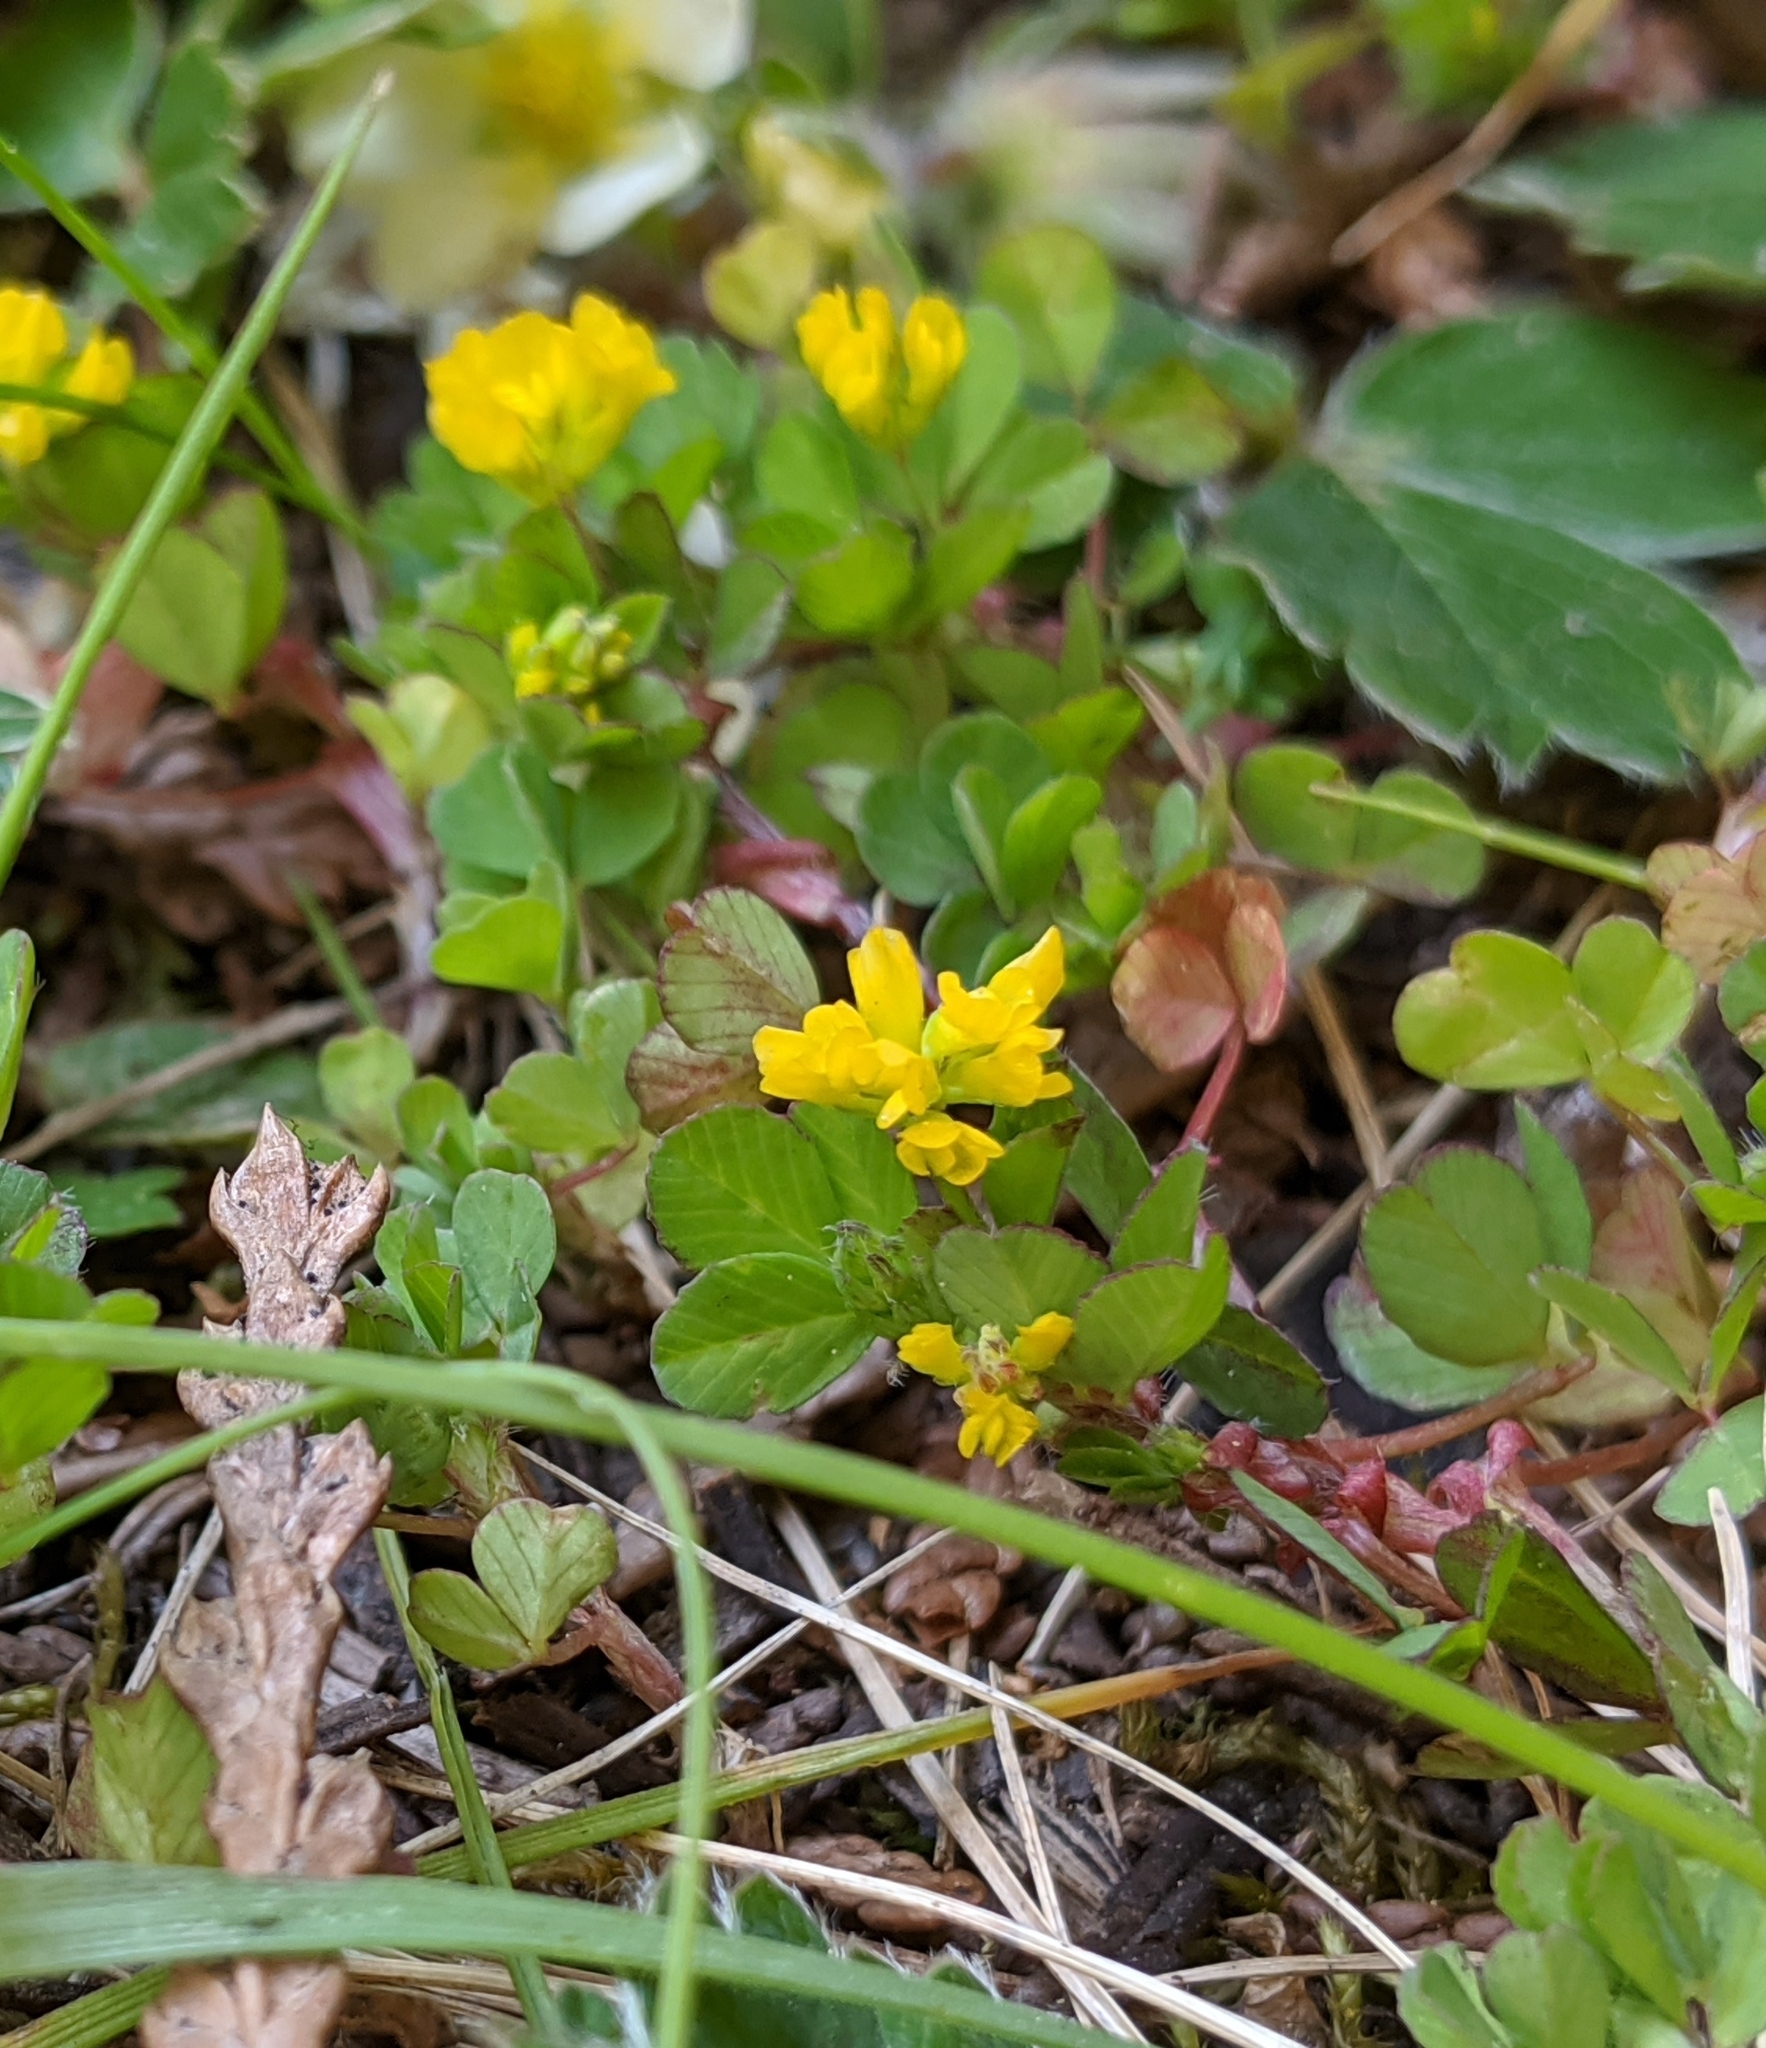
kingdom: Plantae
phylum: Tracheophyta
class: Magnoliopsida
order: Fabales
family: Fabaceae
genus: Trifolium
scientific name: Trifolium dubium
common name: Suckling clover
